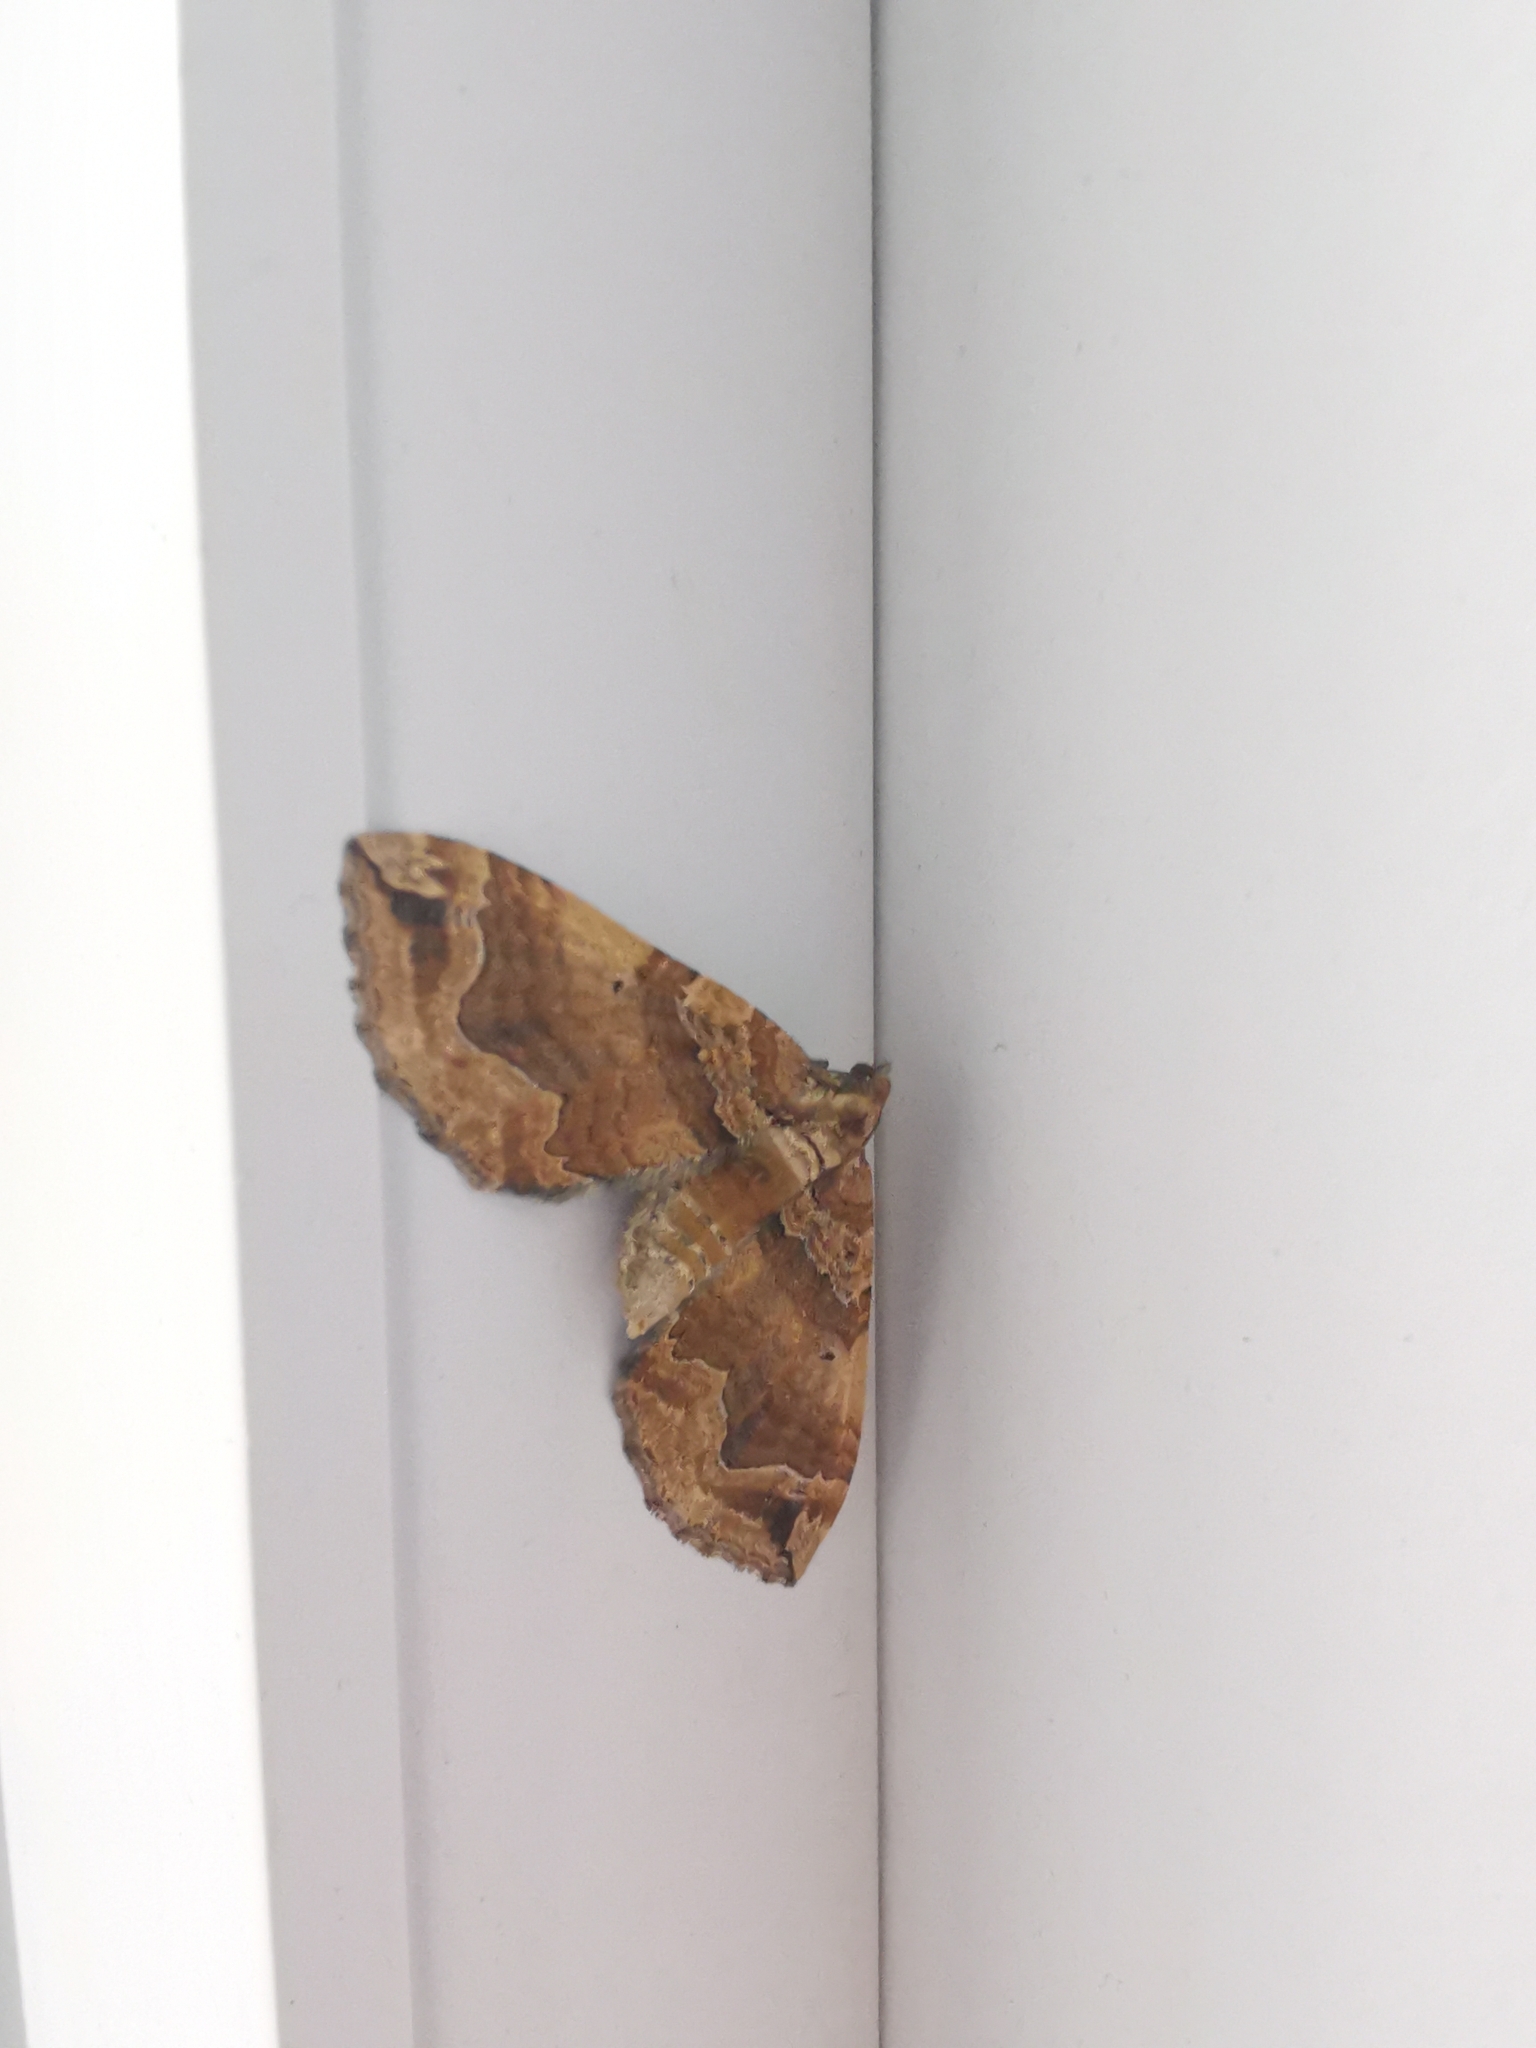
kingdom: Animalia
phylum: Arthropoda
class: Insecta
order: Lepidoptera
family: Geometridae
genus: Pelurga
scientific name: Pelurga comitata
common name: Dark spinach
